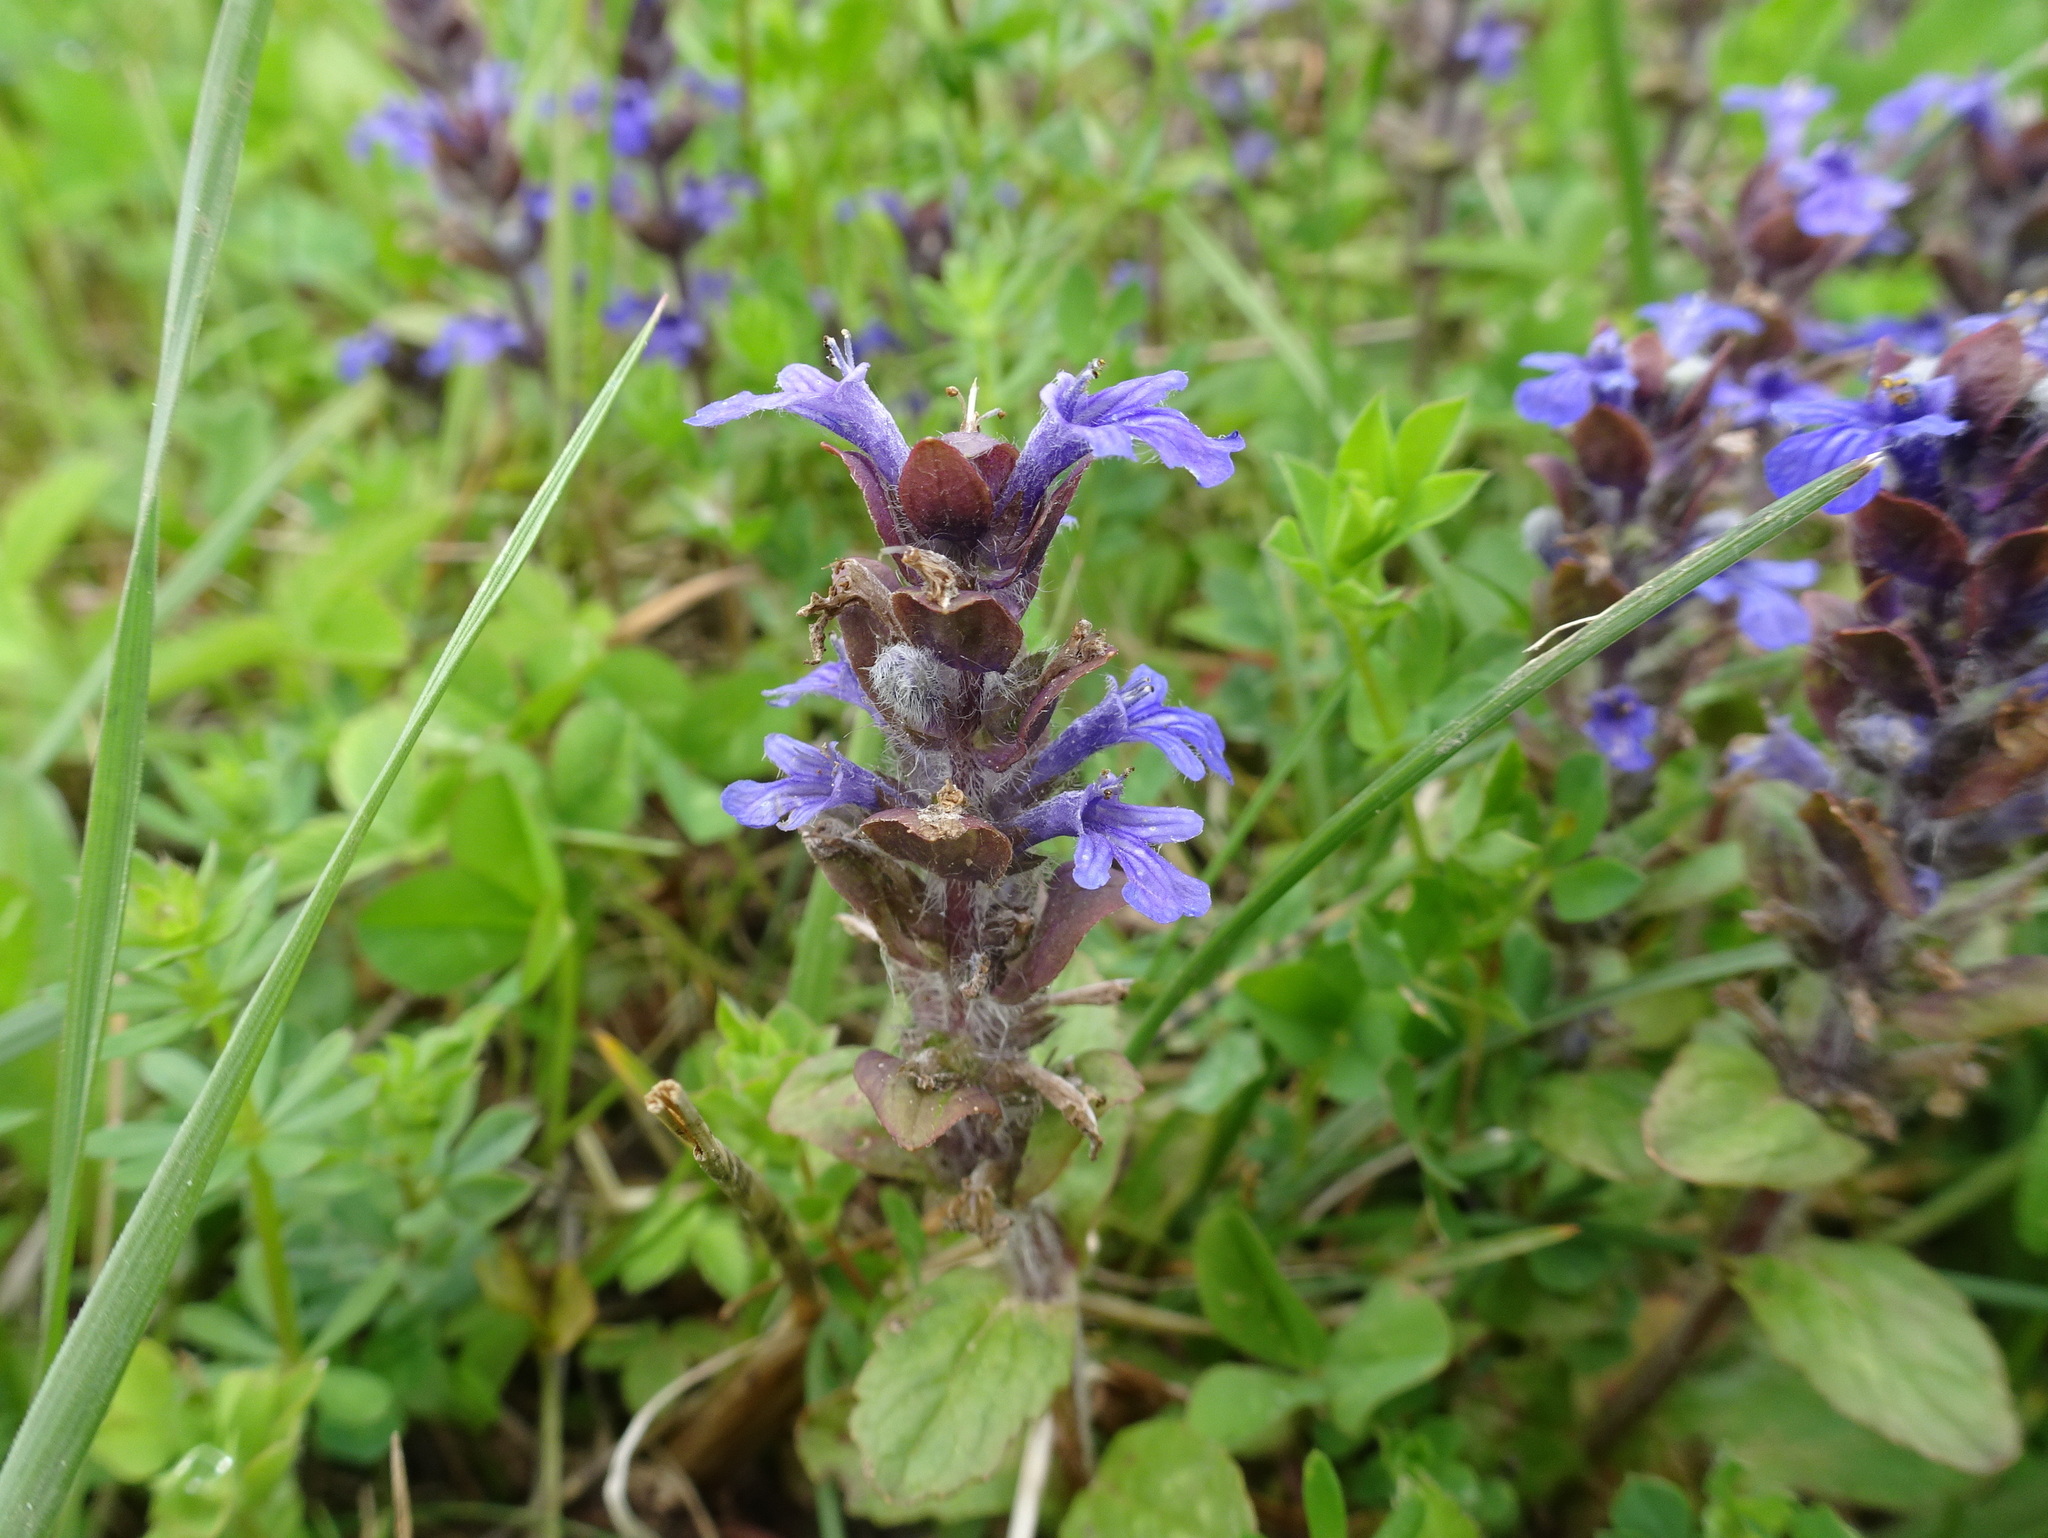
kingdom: Plantae
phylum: Tracheophyta
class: Magnoliopsida
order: Lamiales
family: Lamiaceae
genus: Ajuga
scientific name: Ajuga reptans
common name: Bugle
